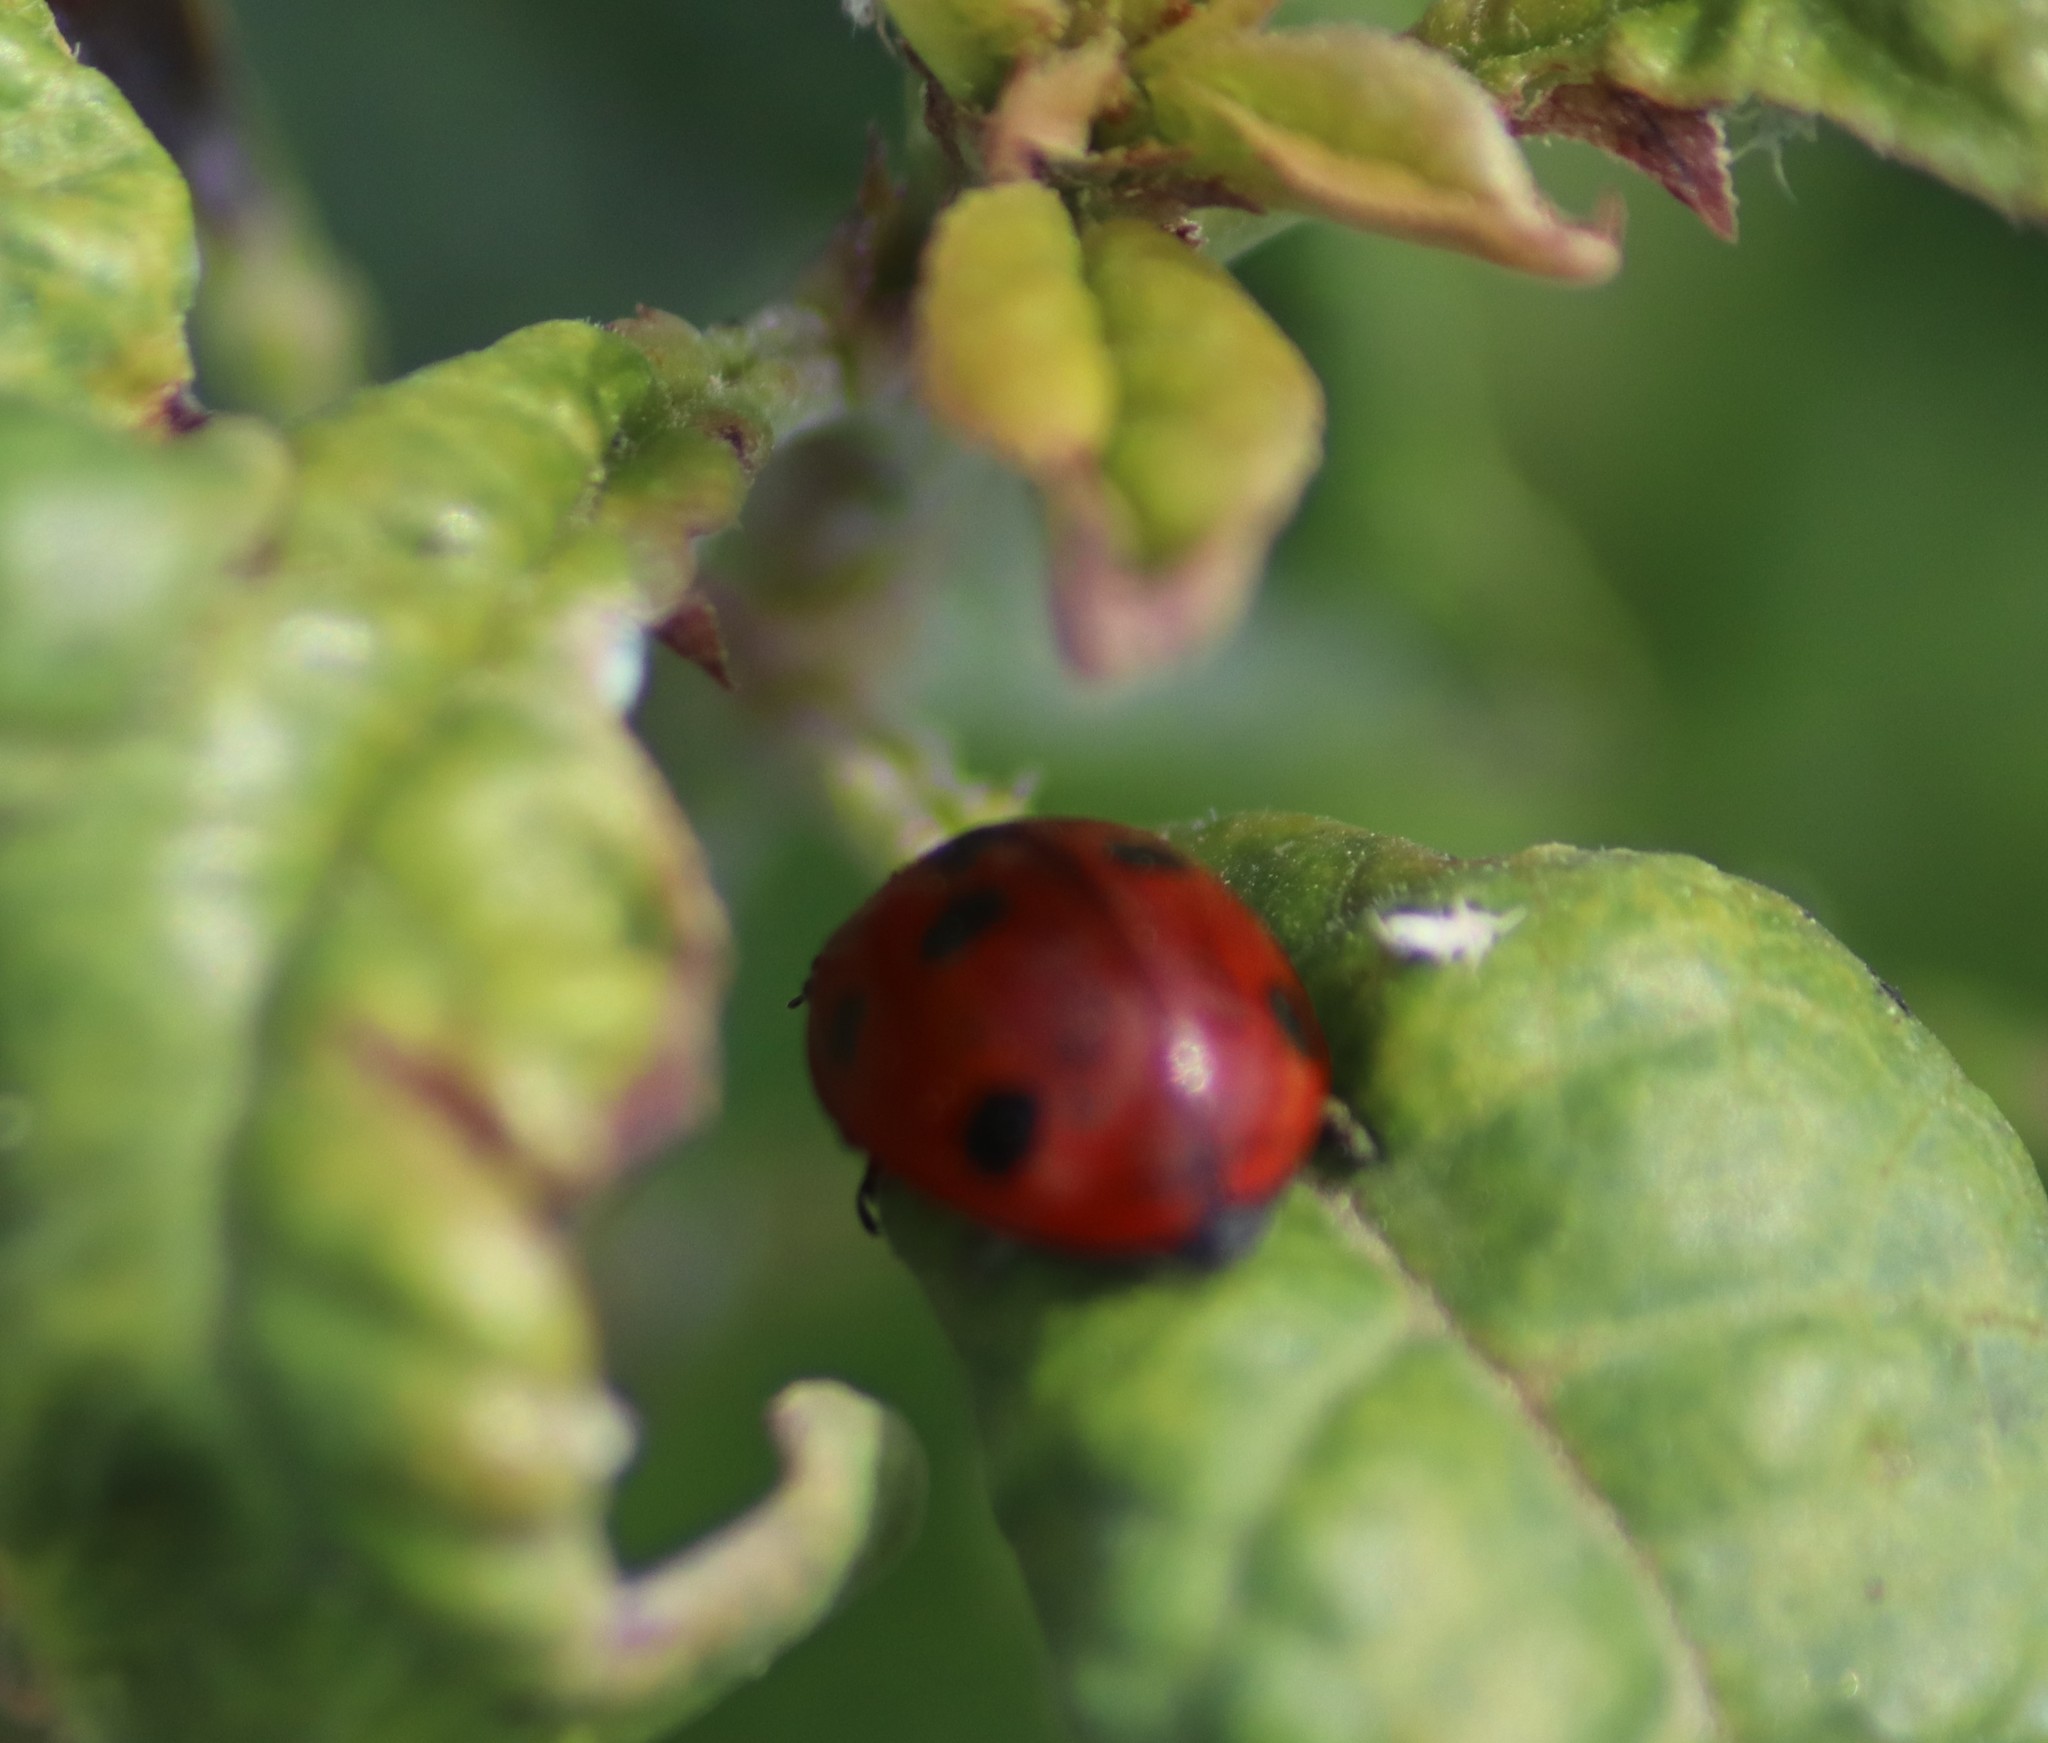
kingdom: Animalia
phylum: Arthropoda
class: Insecta
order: Coleoptera
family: Coccinellidae
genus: Coccinella
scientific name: Coccinella septempunctata
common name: Sevenspotted lady beetle
